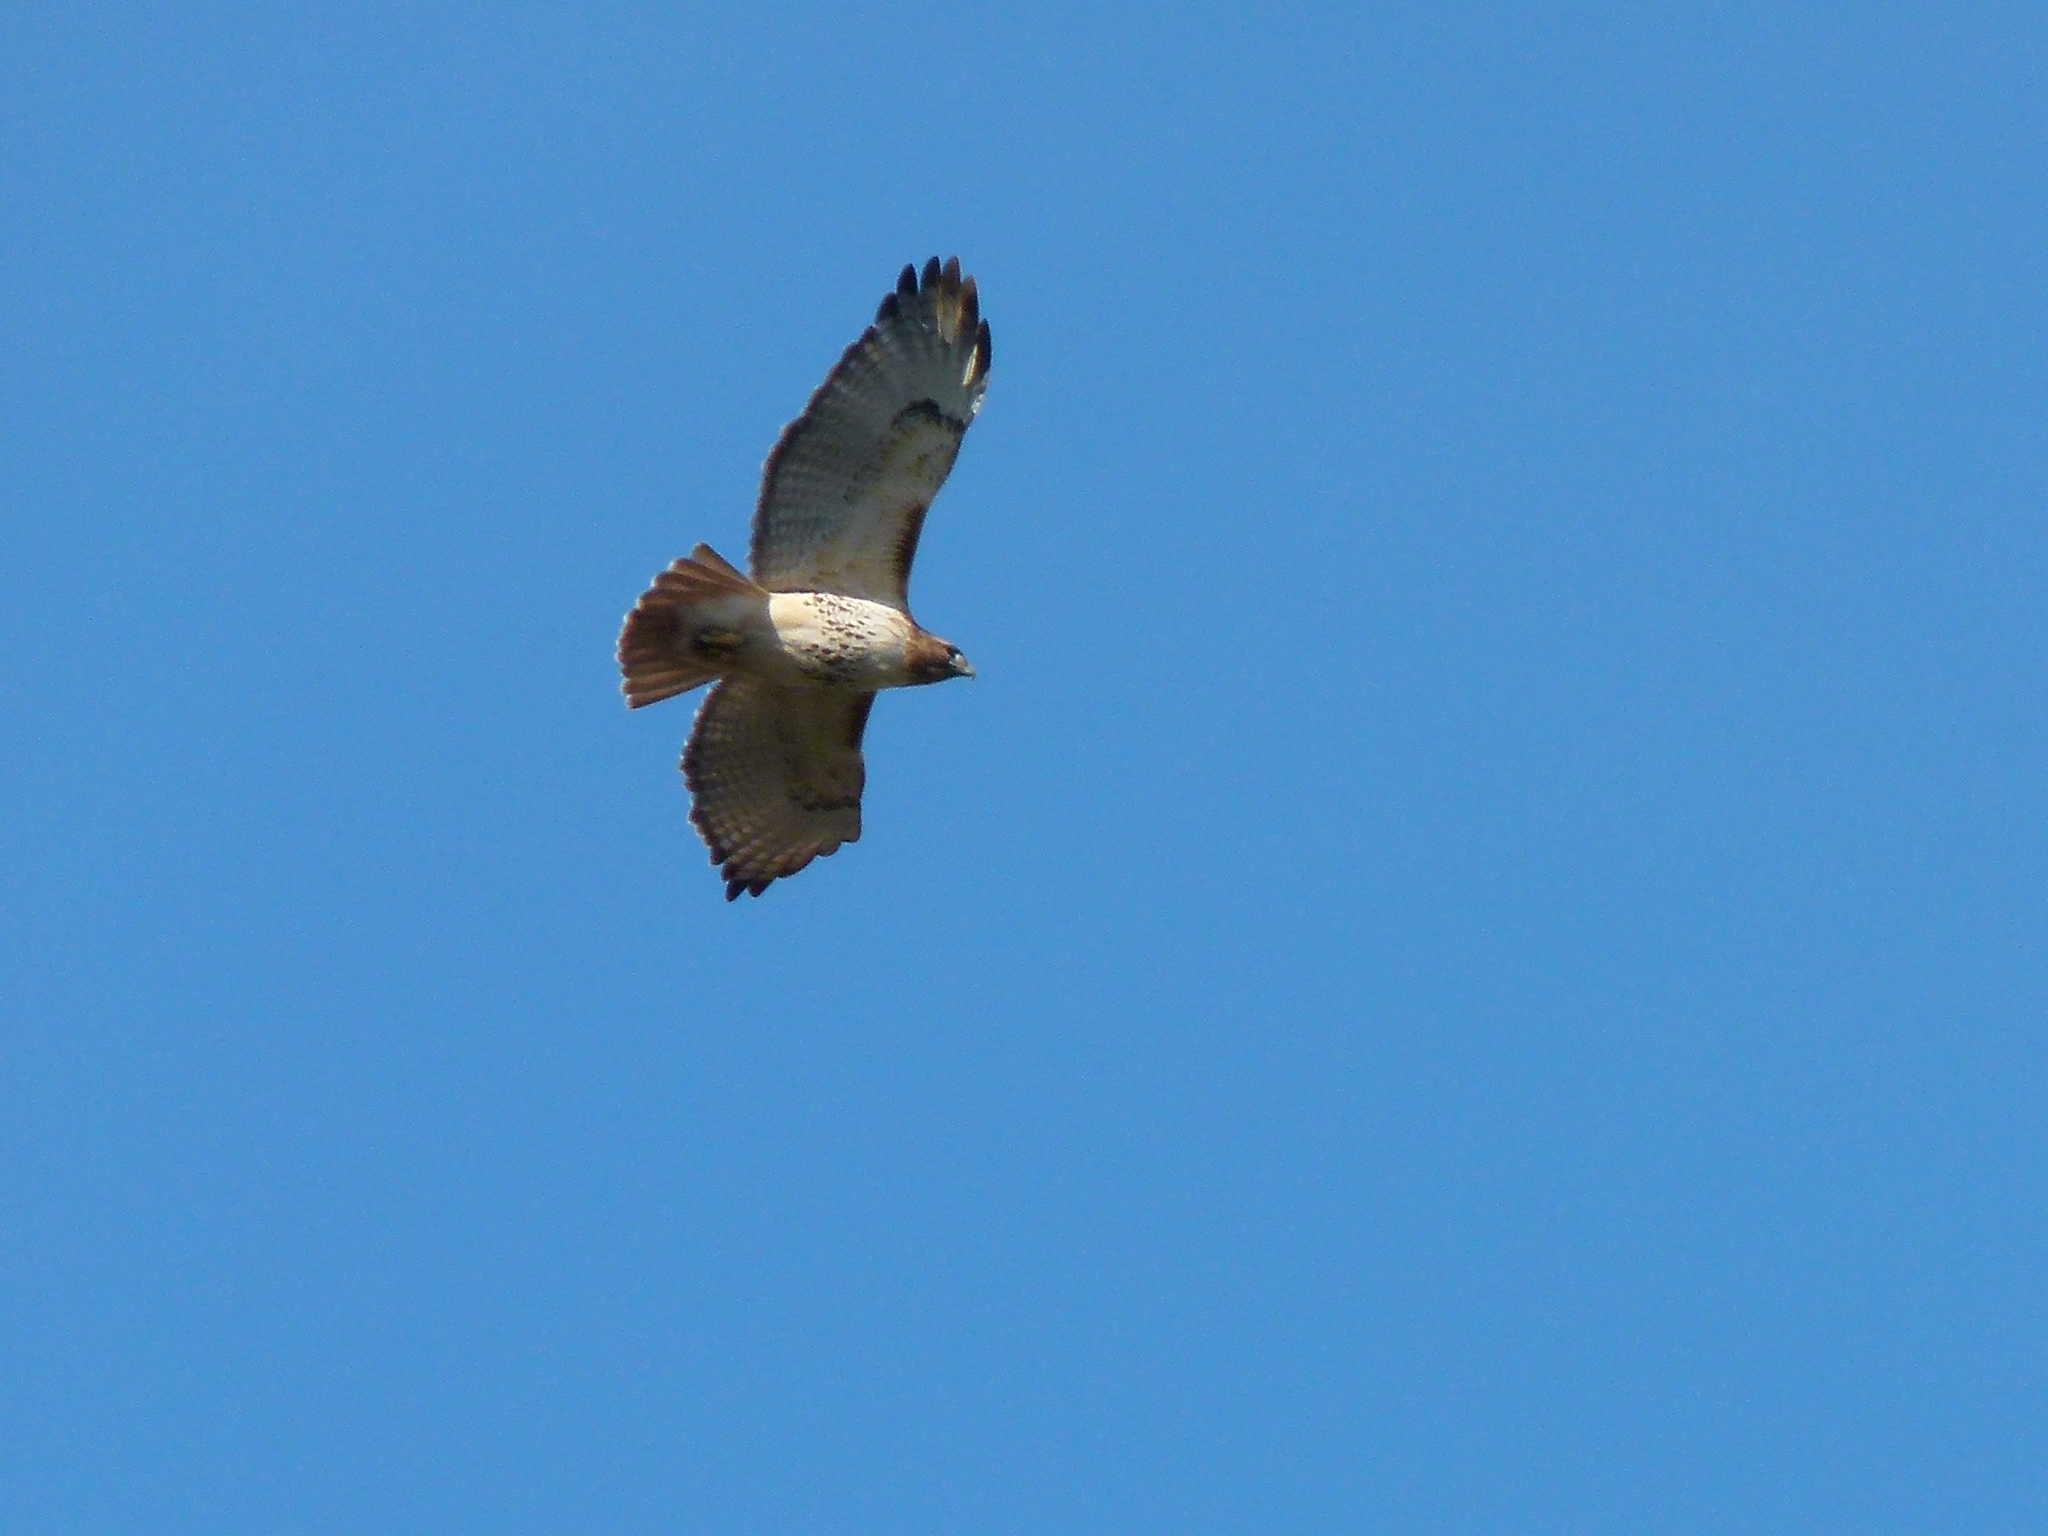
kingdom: Animalia
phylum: Chordata
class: Aves
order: Accipitriformes
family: Accipitridae
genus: Buteo
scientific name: Buteo jamaicensis
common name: Red-tailed hawk
